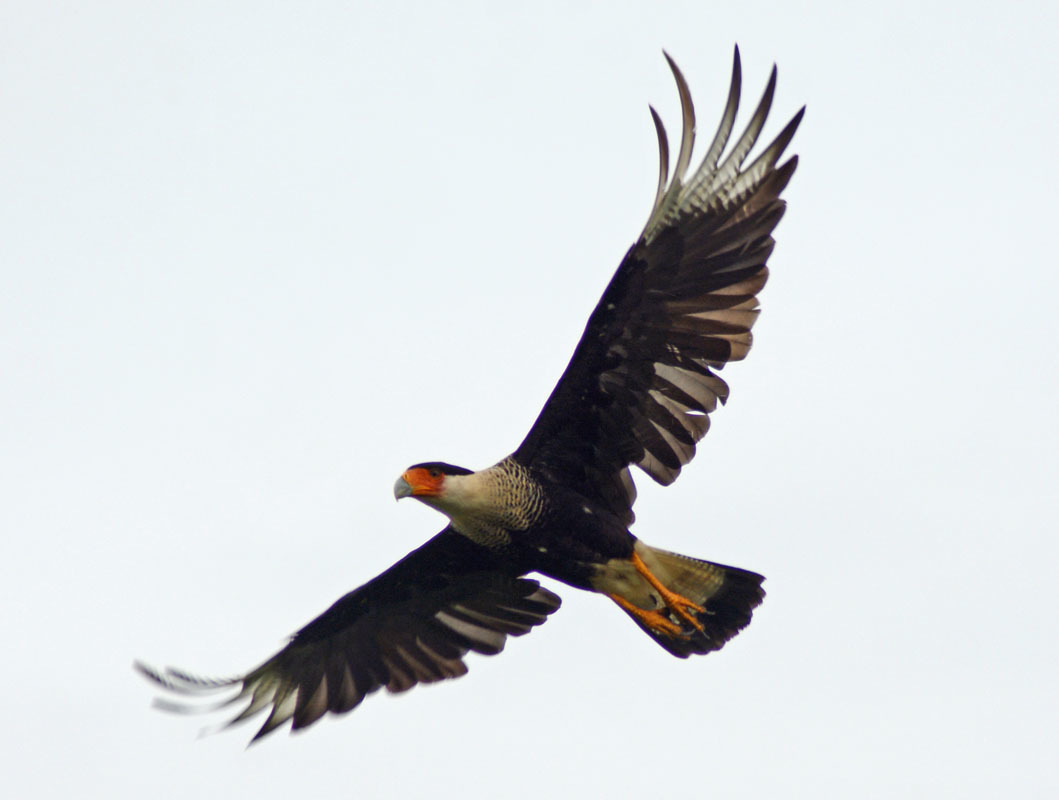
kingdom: Animalia
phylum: Chordata
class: Aves
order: Falconiformes
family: Falconidae
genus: Caracara
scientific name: Caracara plancus
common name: Southern caracara
